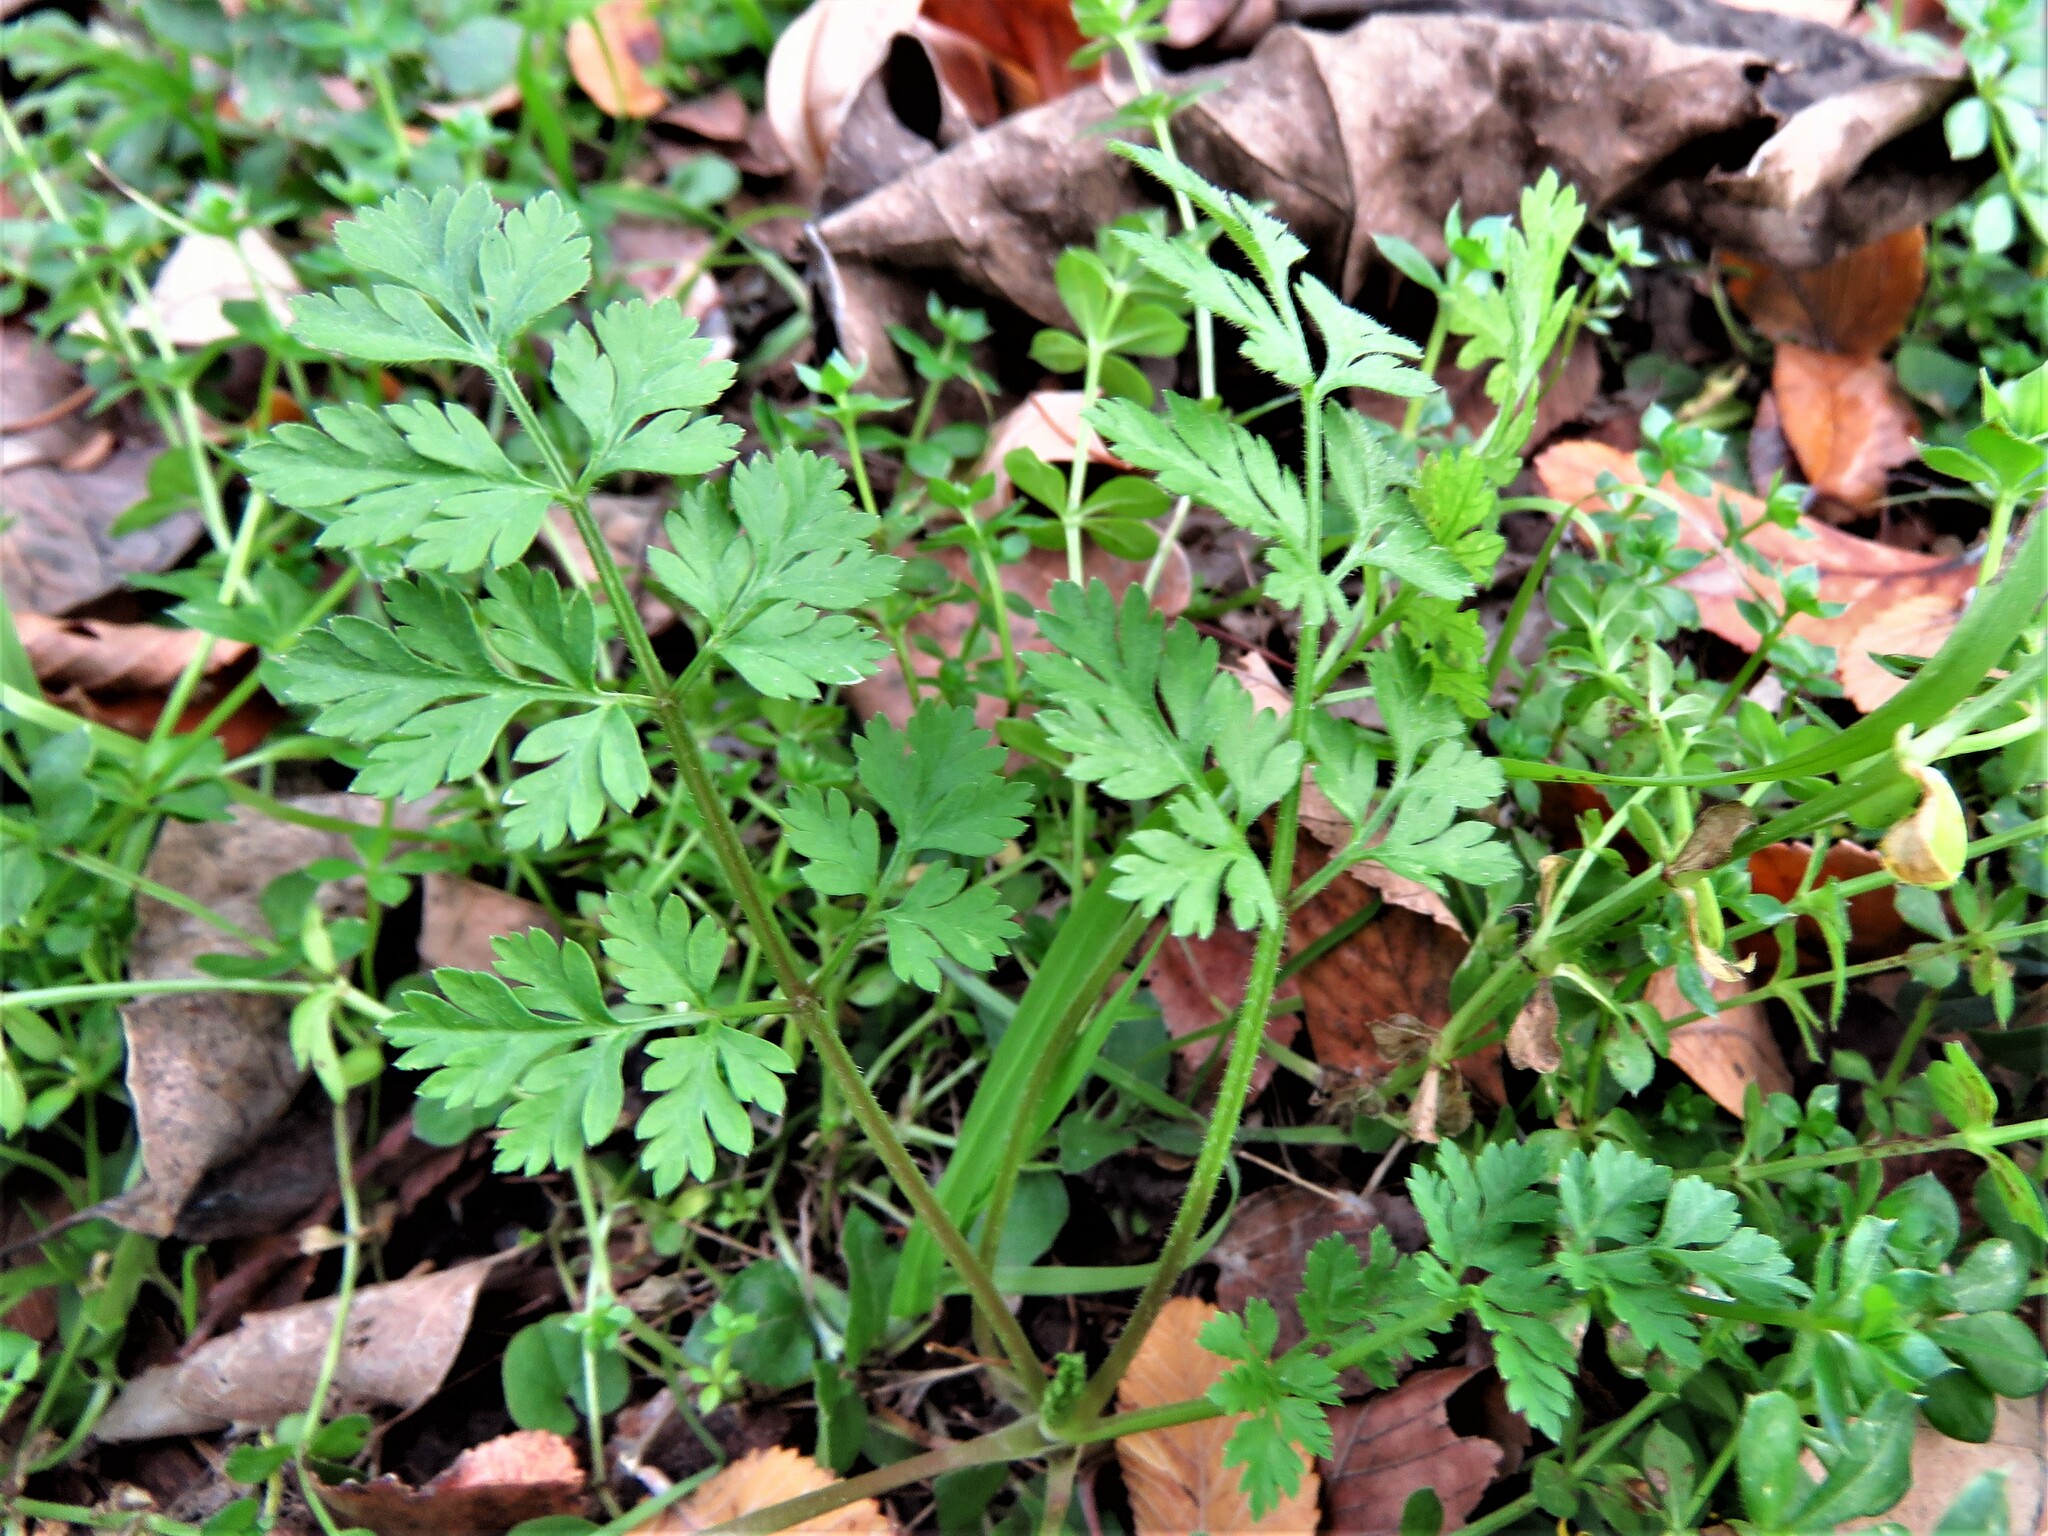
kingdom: Plantae
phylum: Tracheophyta
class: Magnoliopsida
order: Apiales
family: Apiaceae
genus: Torilis
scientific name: Torilis arvensis
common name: Spreading hedge-parsley
